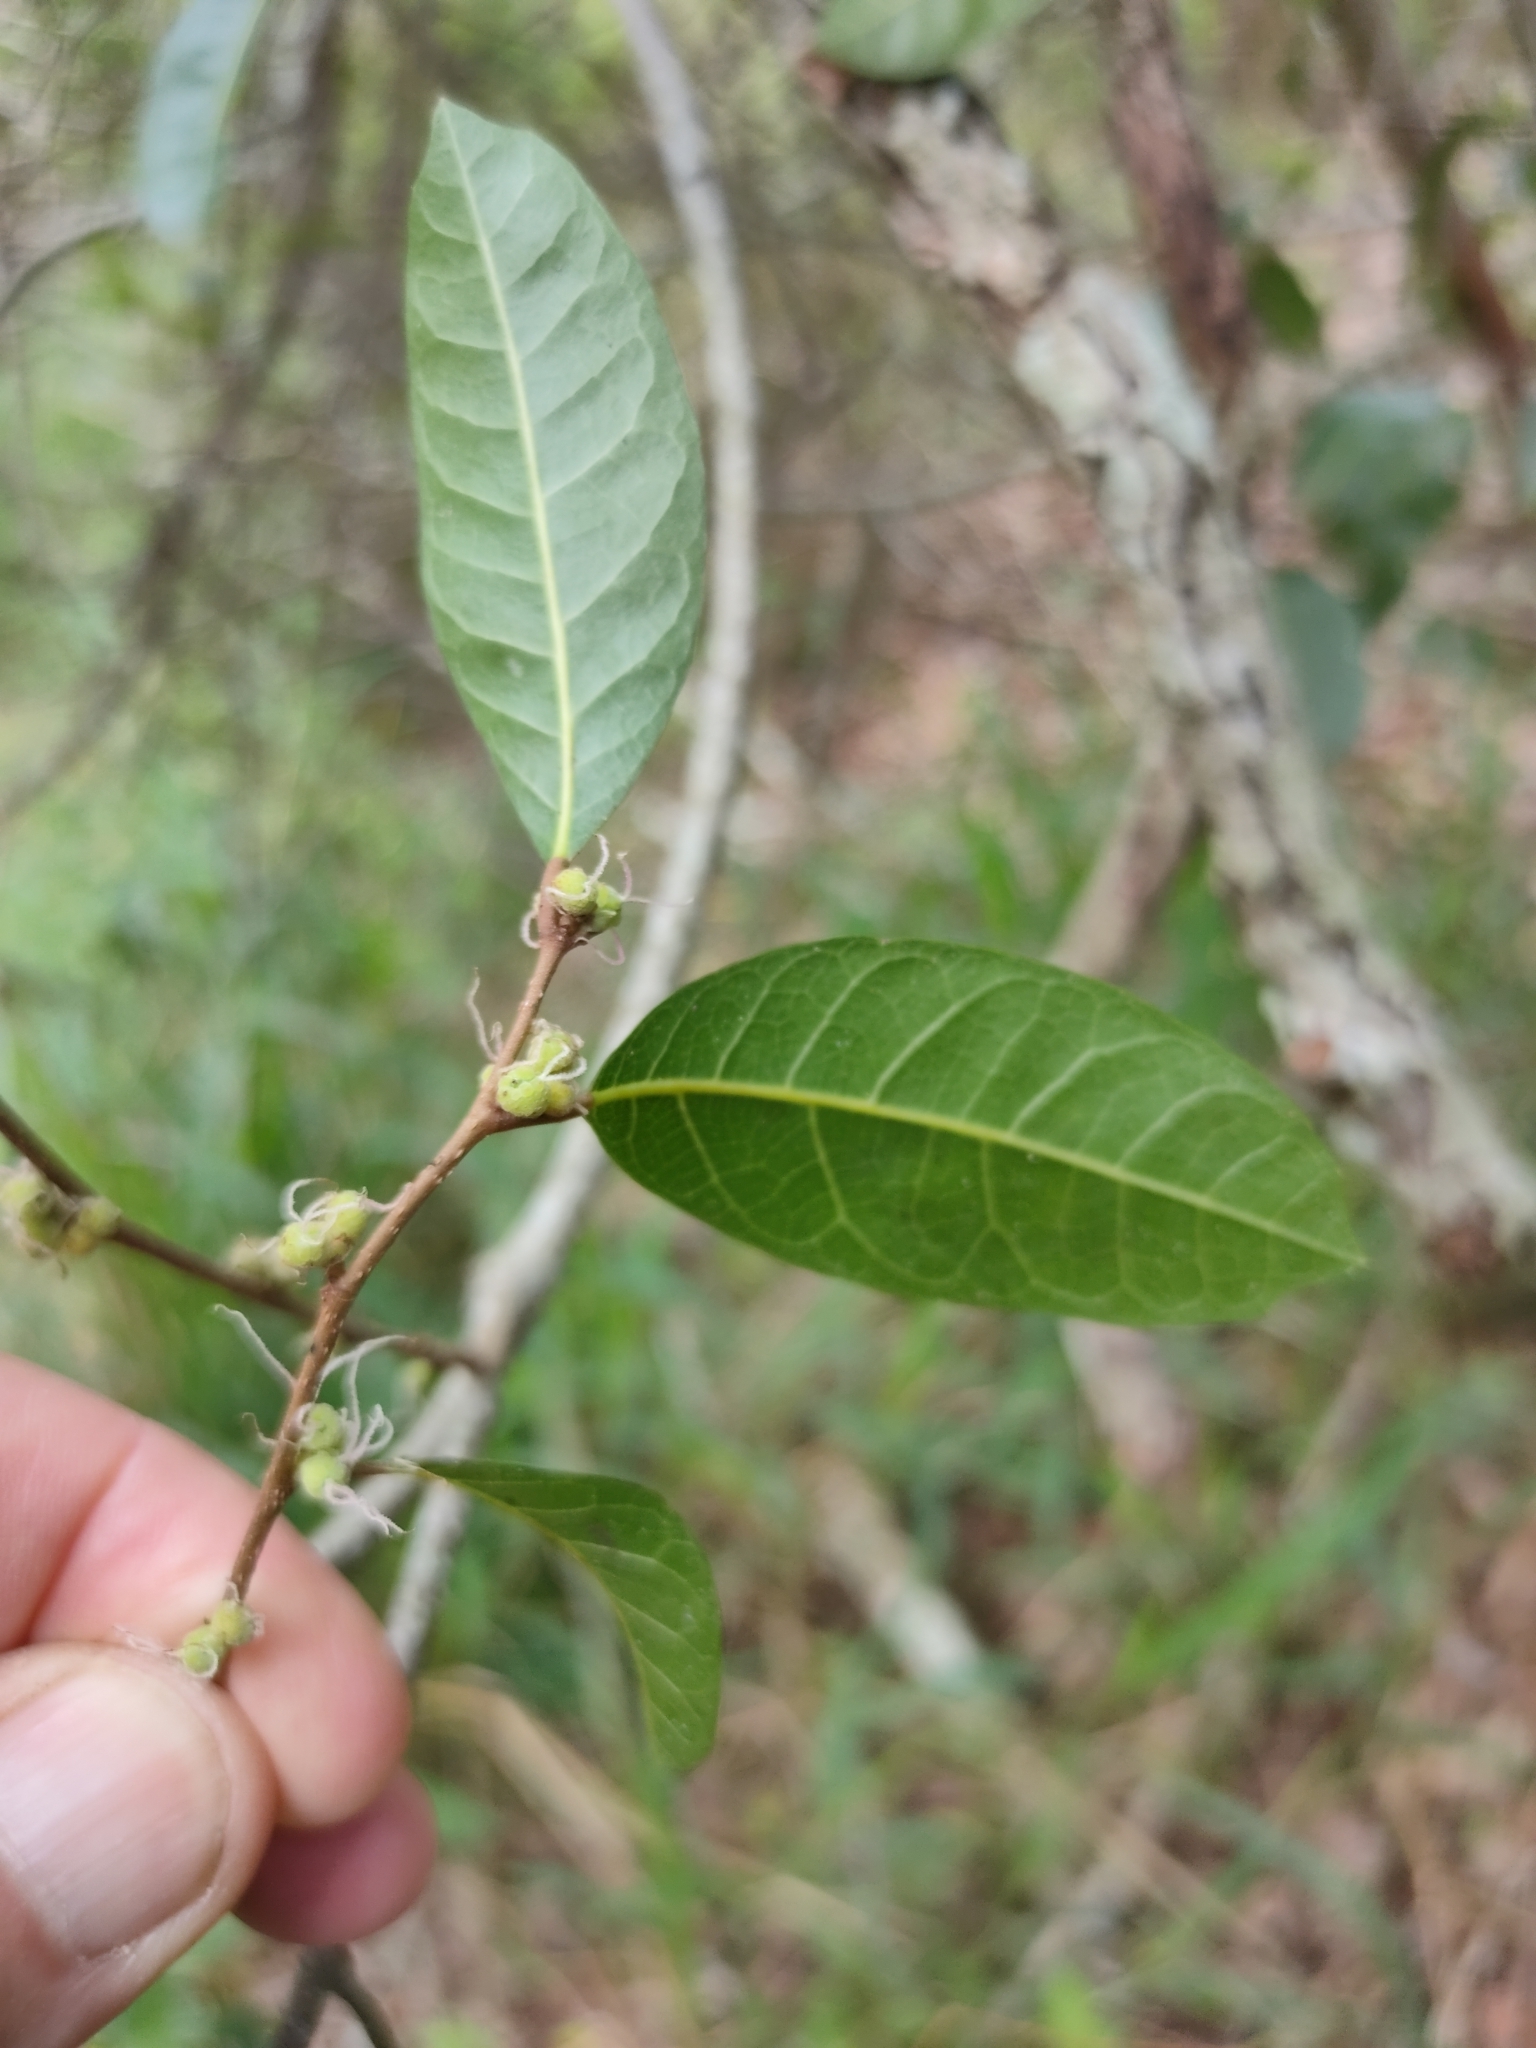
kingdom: Plantae
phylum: Tracheophyta
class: Magnoliopsida
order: Rosales
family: Moraceae
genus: Malaisia
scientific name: Malaisia scandens
